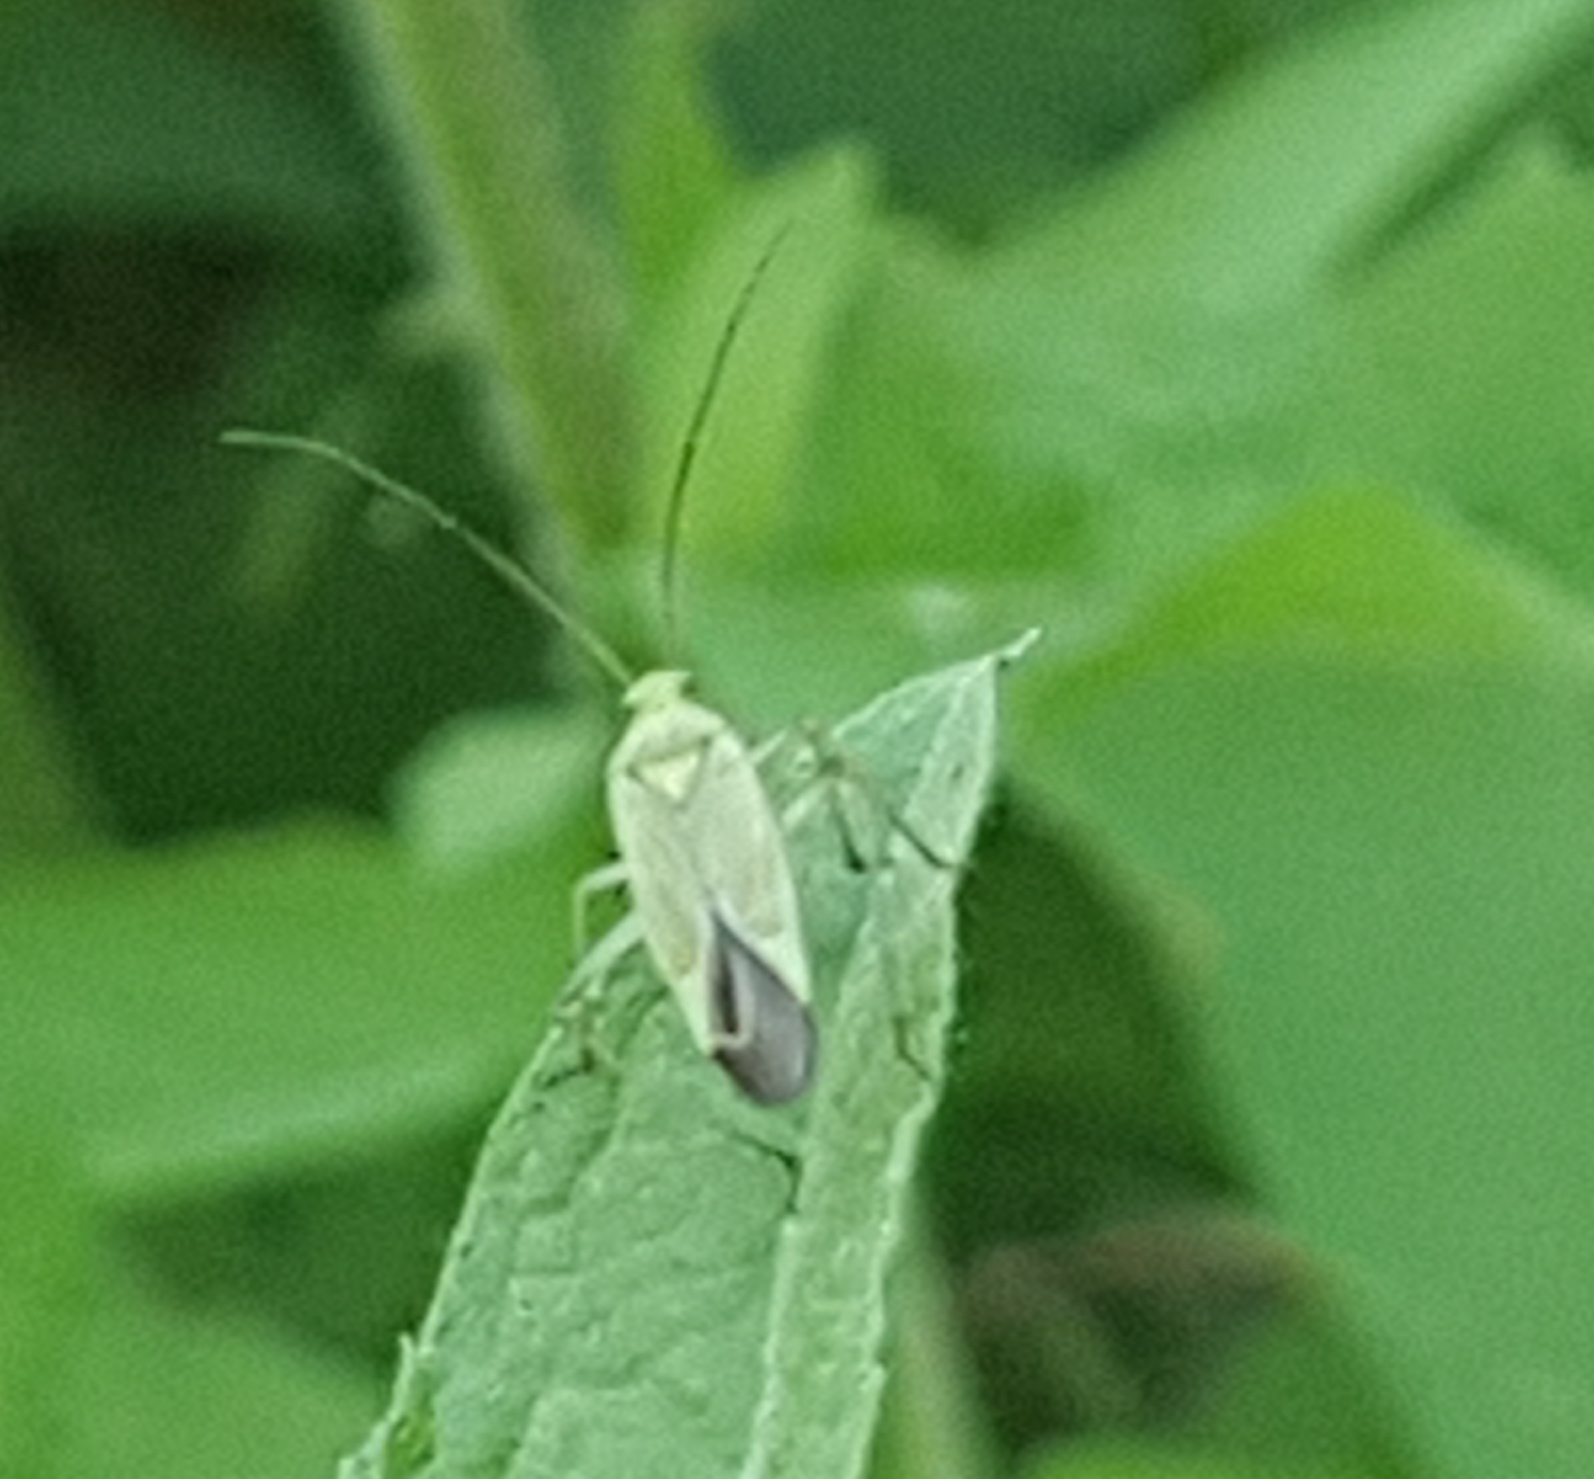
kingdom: Animalia
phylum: Arthropoda
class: Insecta
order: Hemiptera
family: Miridae
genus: Calocoris
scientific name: Calocoris affinis
